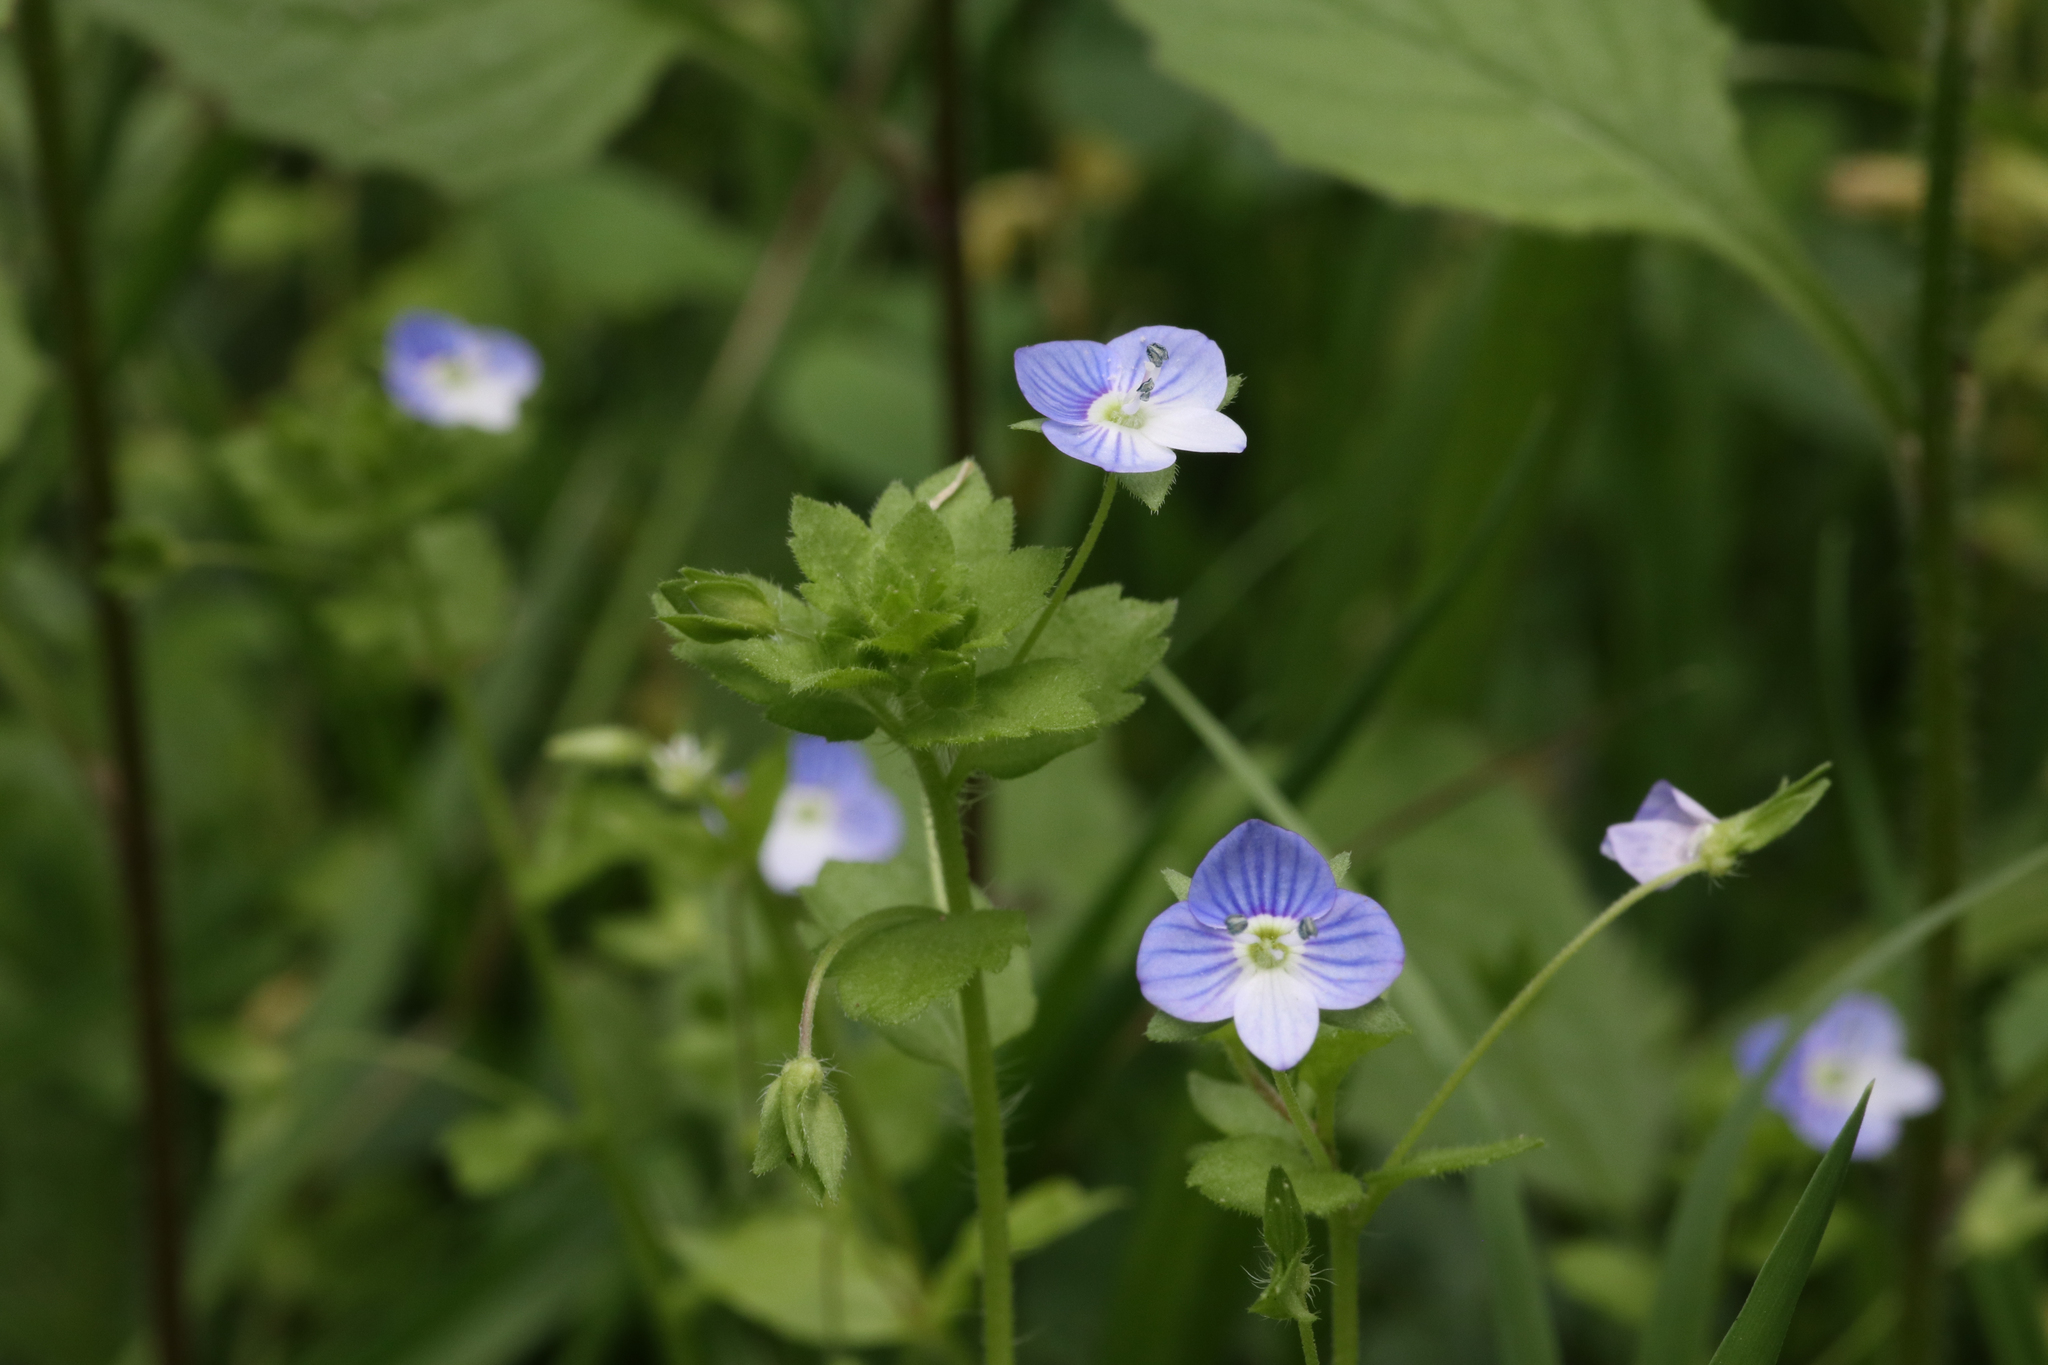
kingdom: Plantae
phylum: Tracheophyta
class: Magnoliopsida
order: Lamiales
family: Plantaginaceae
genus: Veronica
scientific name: Veronica persica
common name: Common field-speedwell
